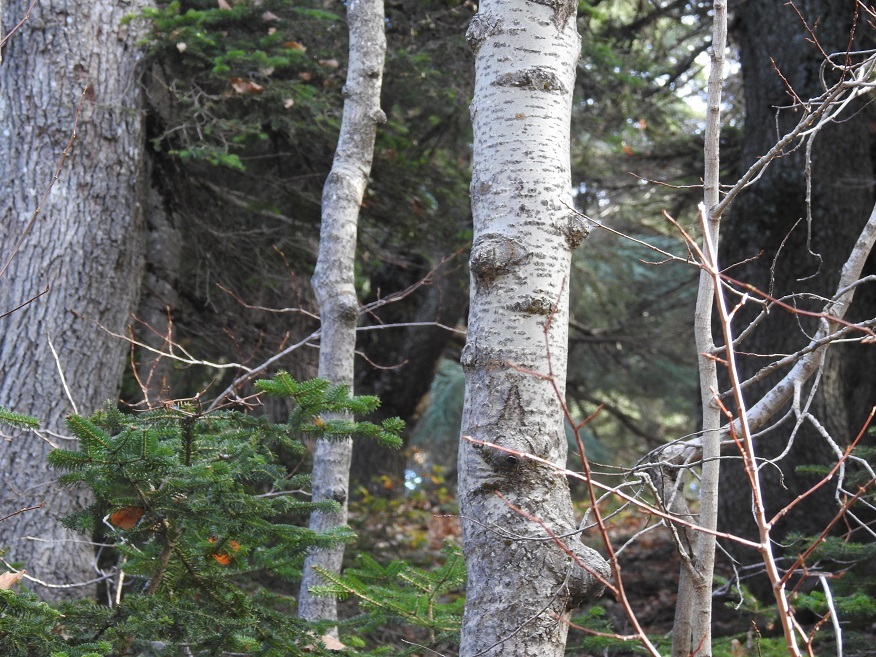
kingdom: Plantae
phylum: Tracheophyta
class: Magnoliopsida
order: Malpighiales
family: Salicaceae
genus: Populus
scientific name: Populus tremula
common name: European aspen
